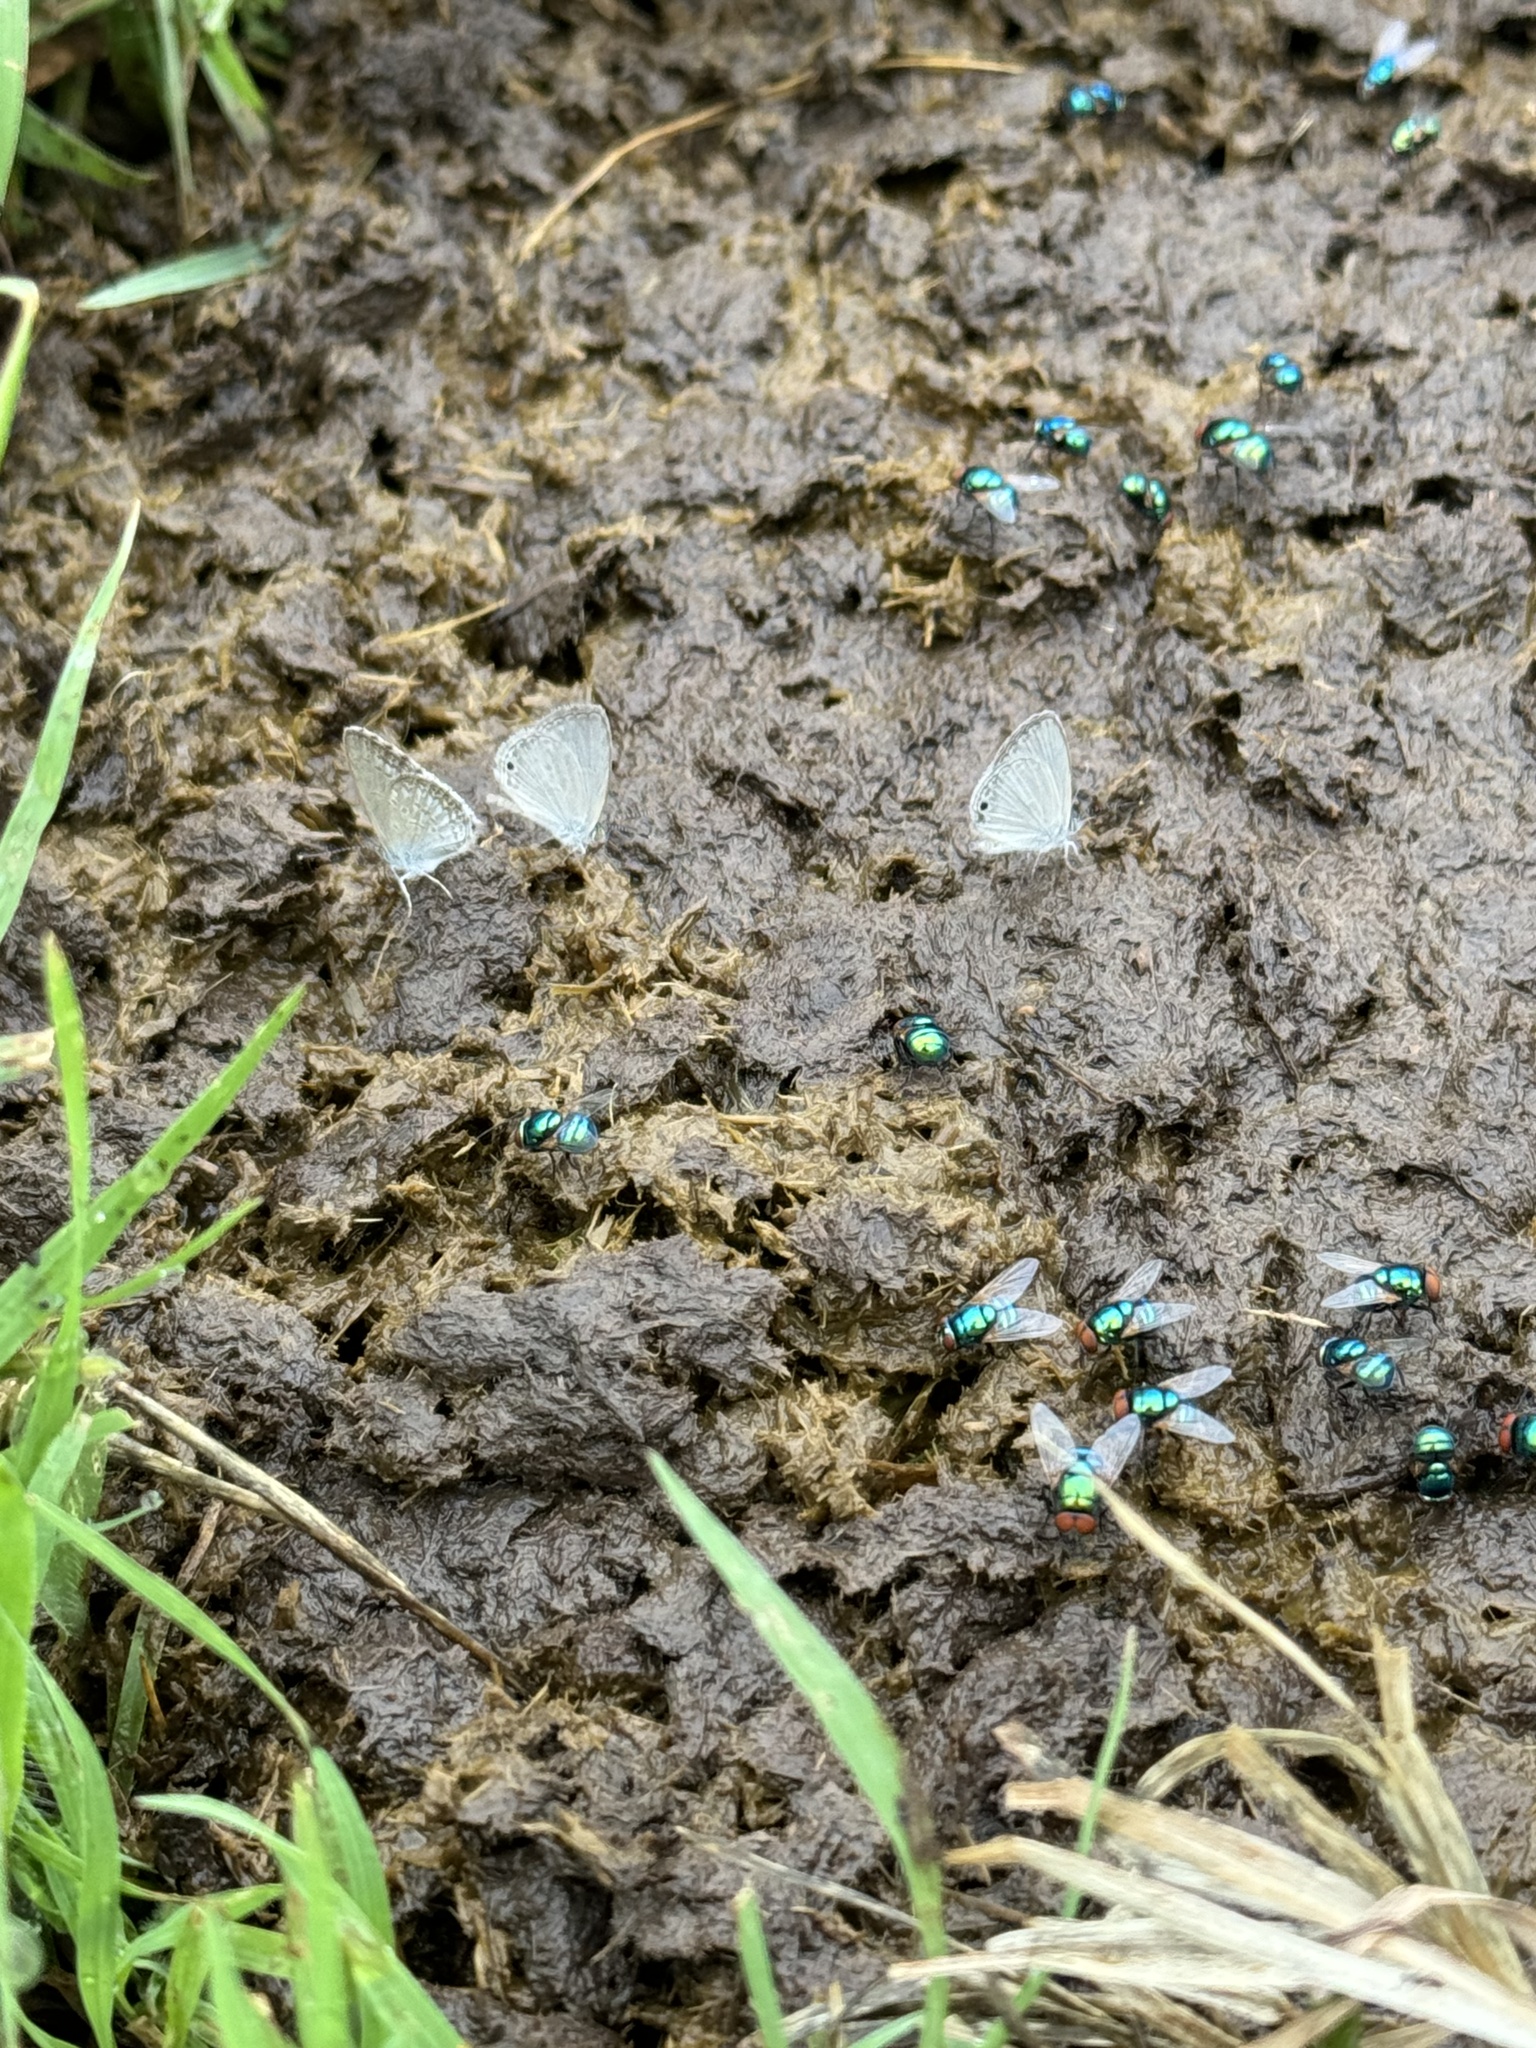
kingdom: Animalia
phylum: Arthropoda
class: Insecta
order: Lepidoptera
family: Lycaenidae
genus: Cupido
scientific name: Cupido nisa
